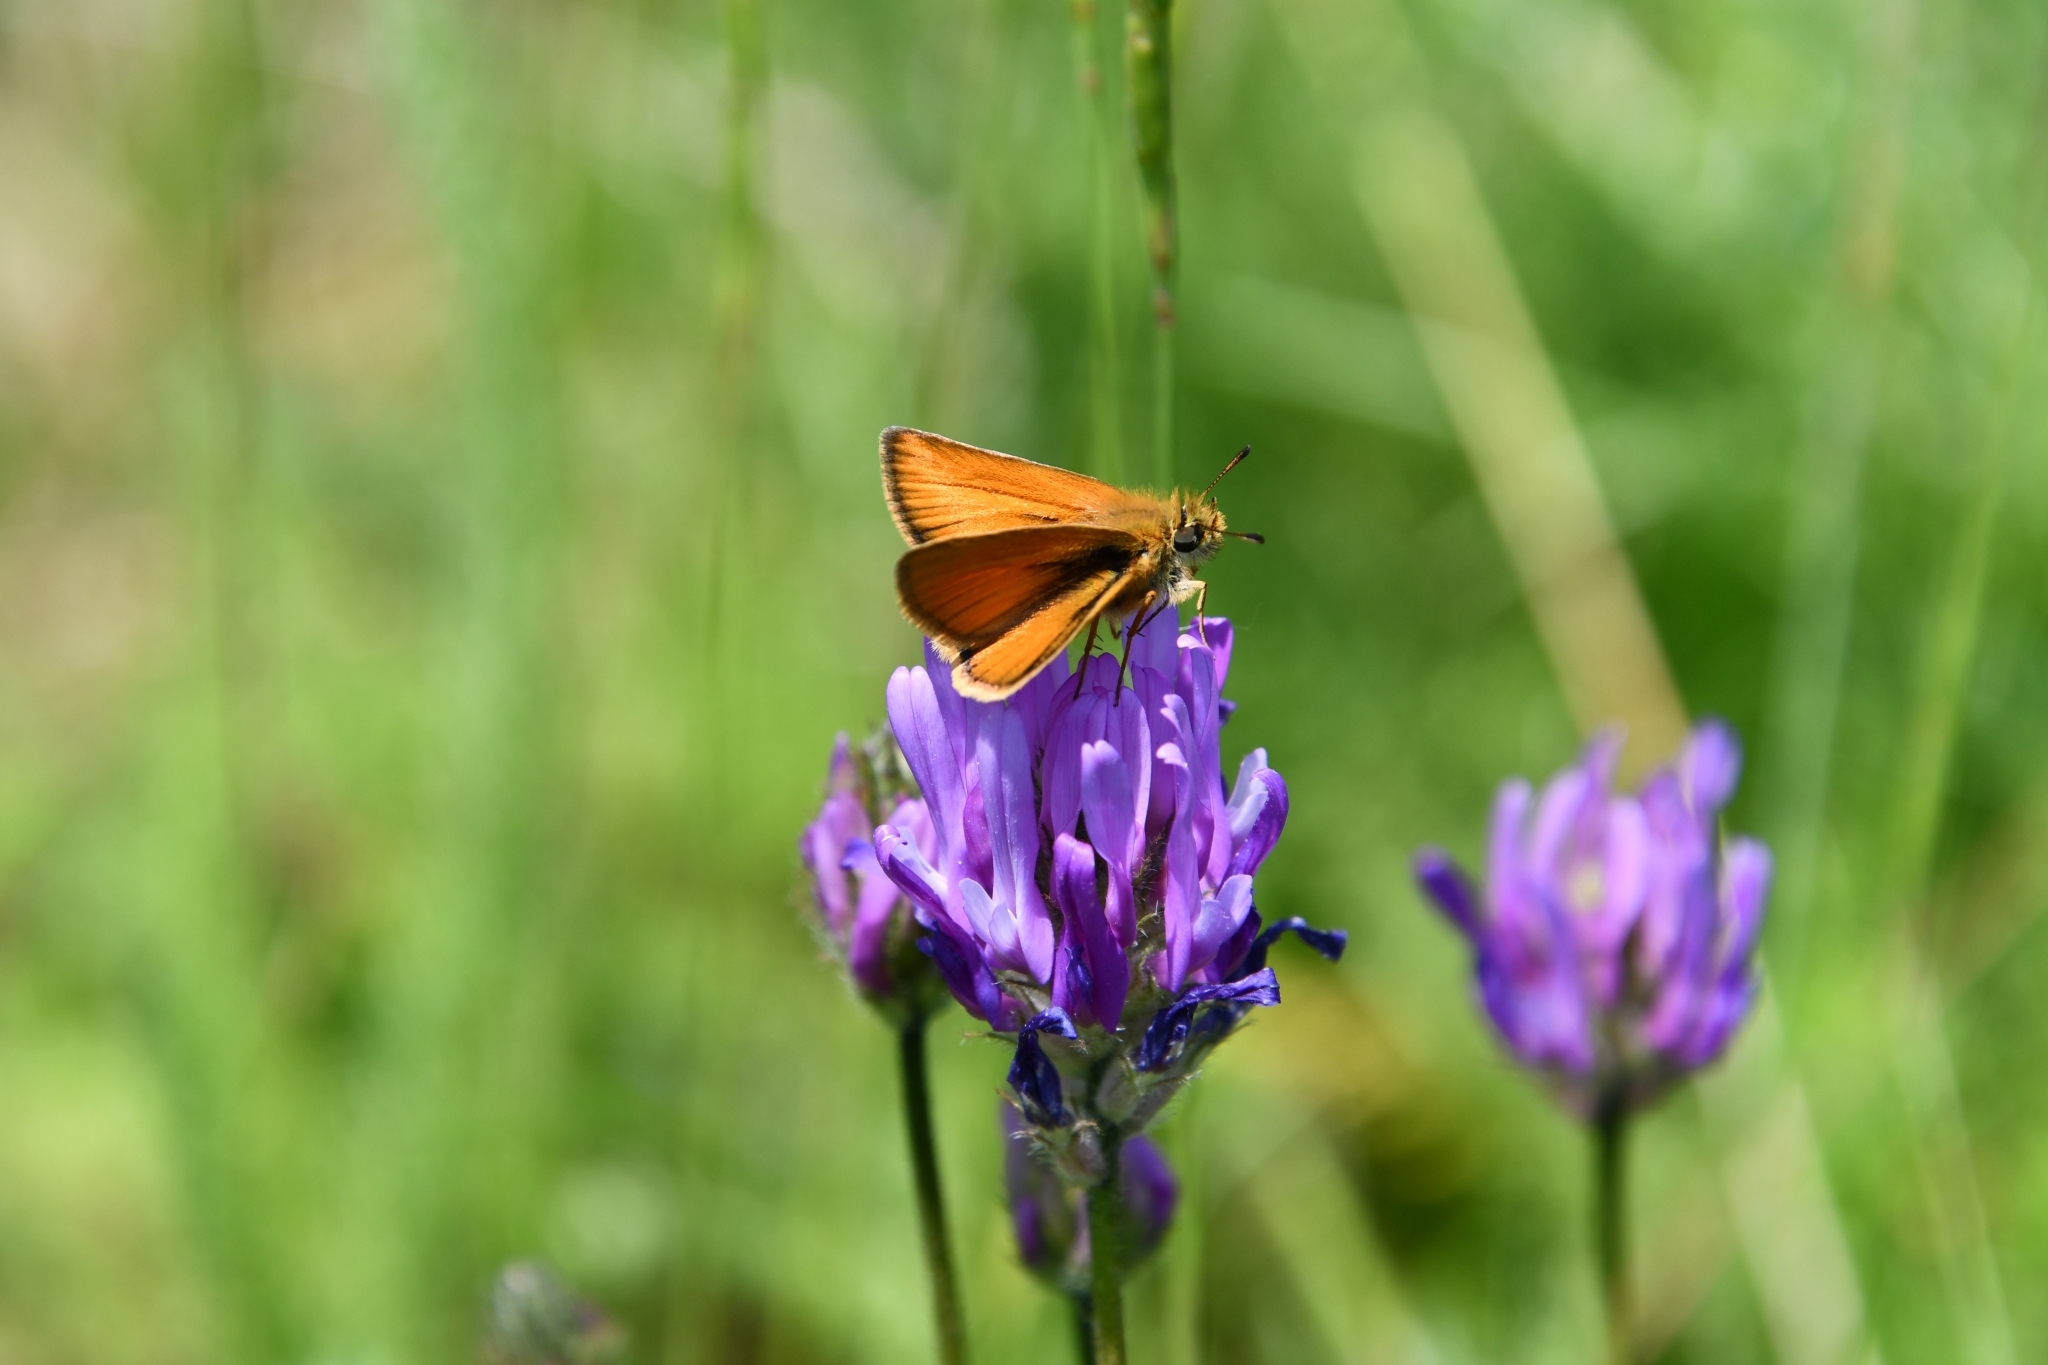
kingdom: Animalia
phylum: Arthropoda
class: Insecta
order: Lepidoptera
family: Hesperiidae
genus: Thymelicus
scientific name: Thymelicus lineola
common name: Essex skipper
